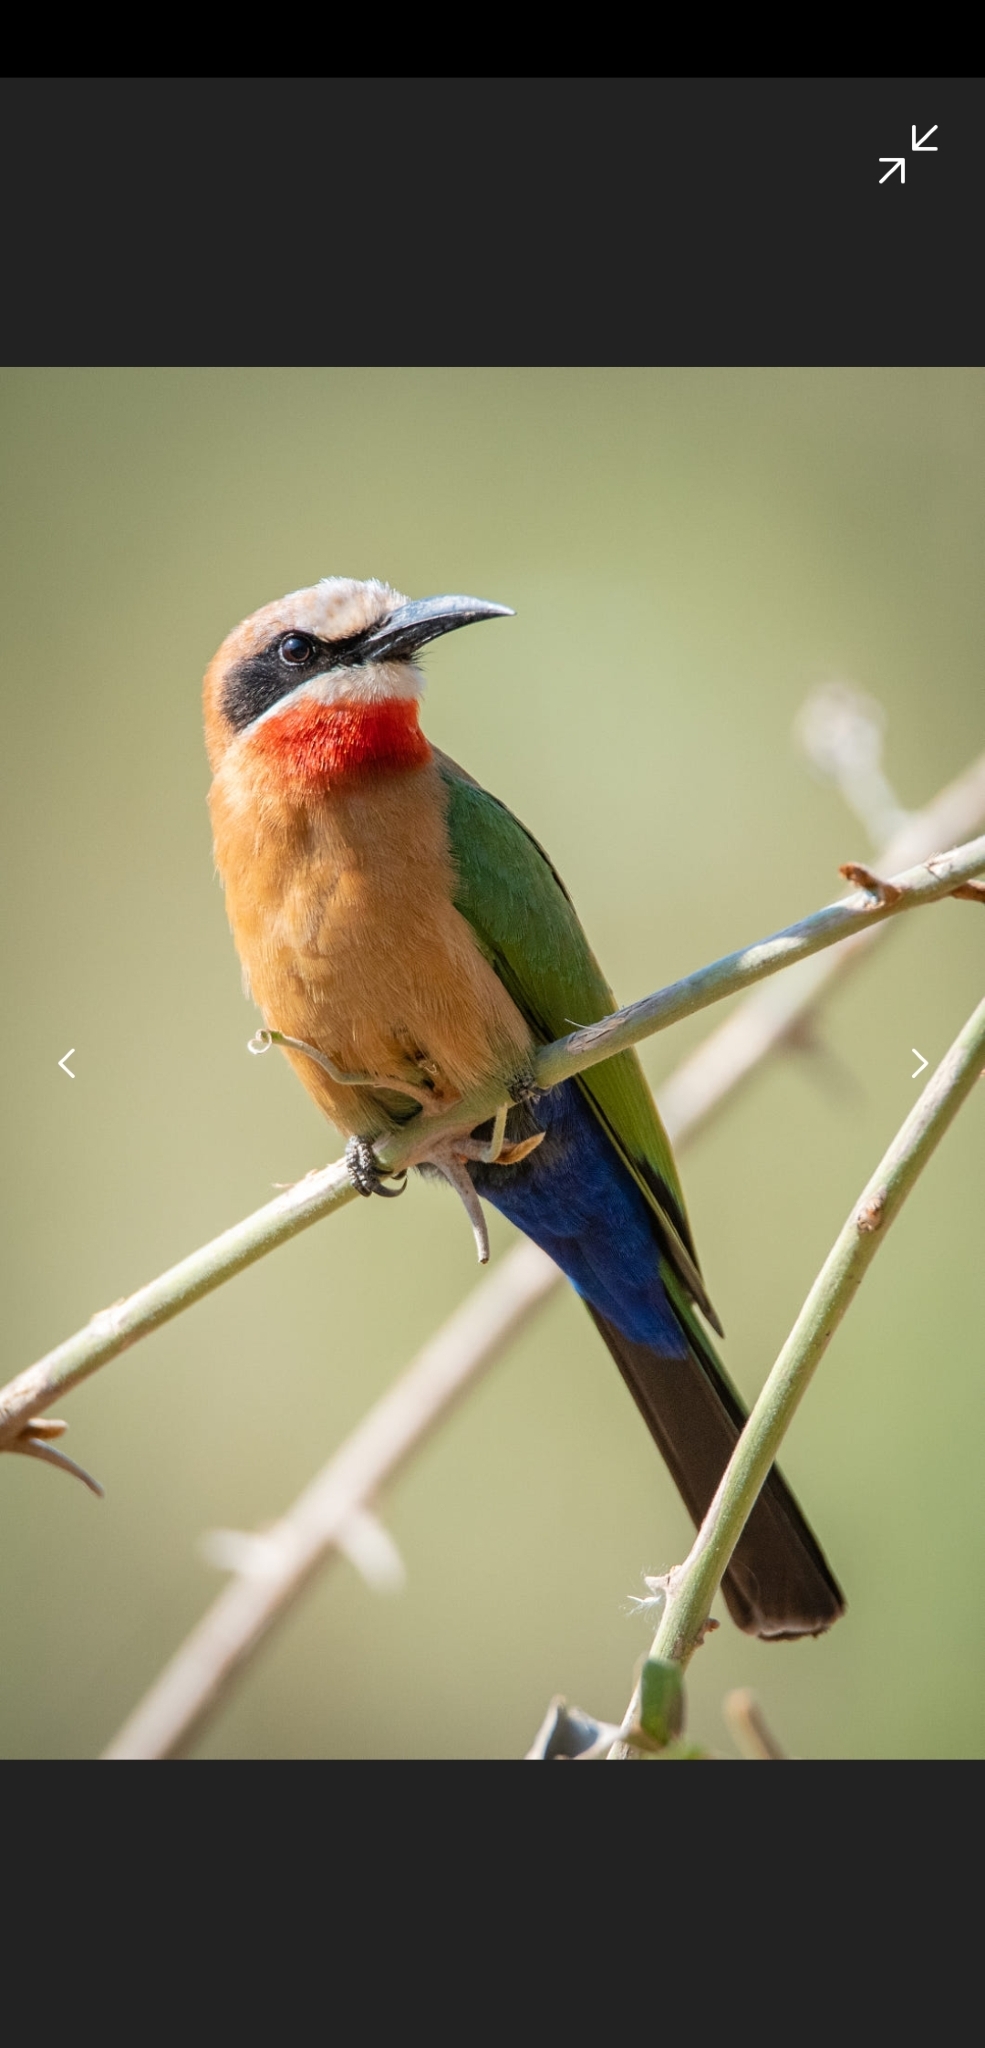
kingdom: Animalia
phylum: Chordata
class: Aves
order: Coraciiformes
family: Meropidae
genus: Merops
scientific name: Merops bullockoides
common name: White-fronted bee-eater
